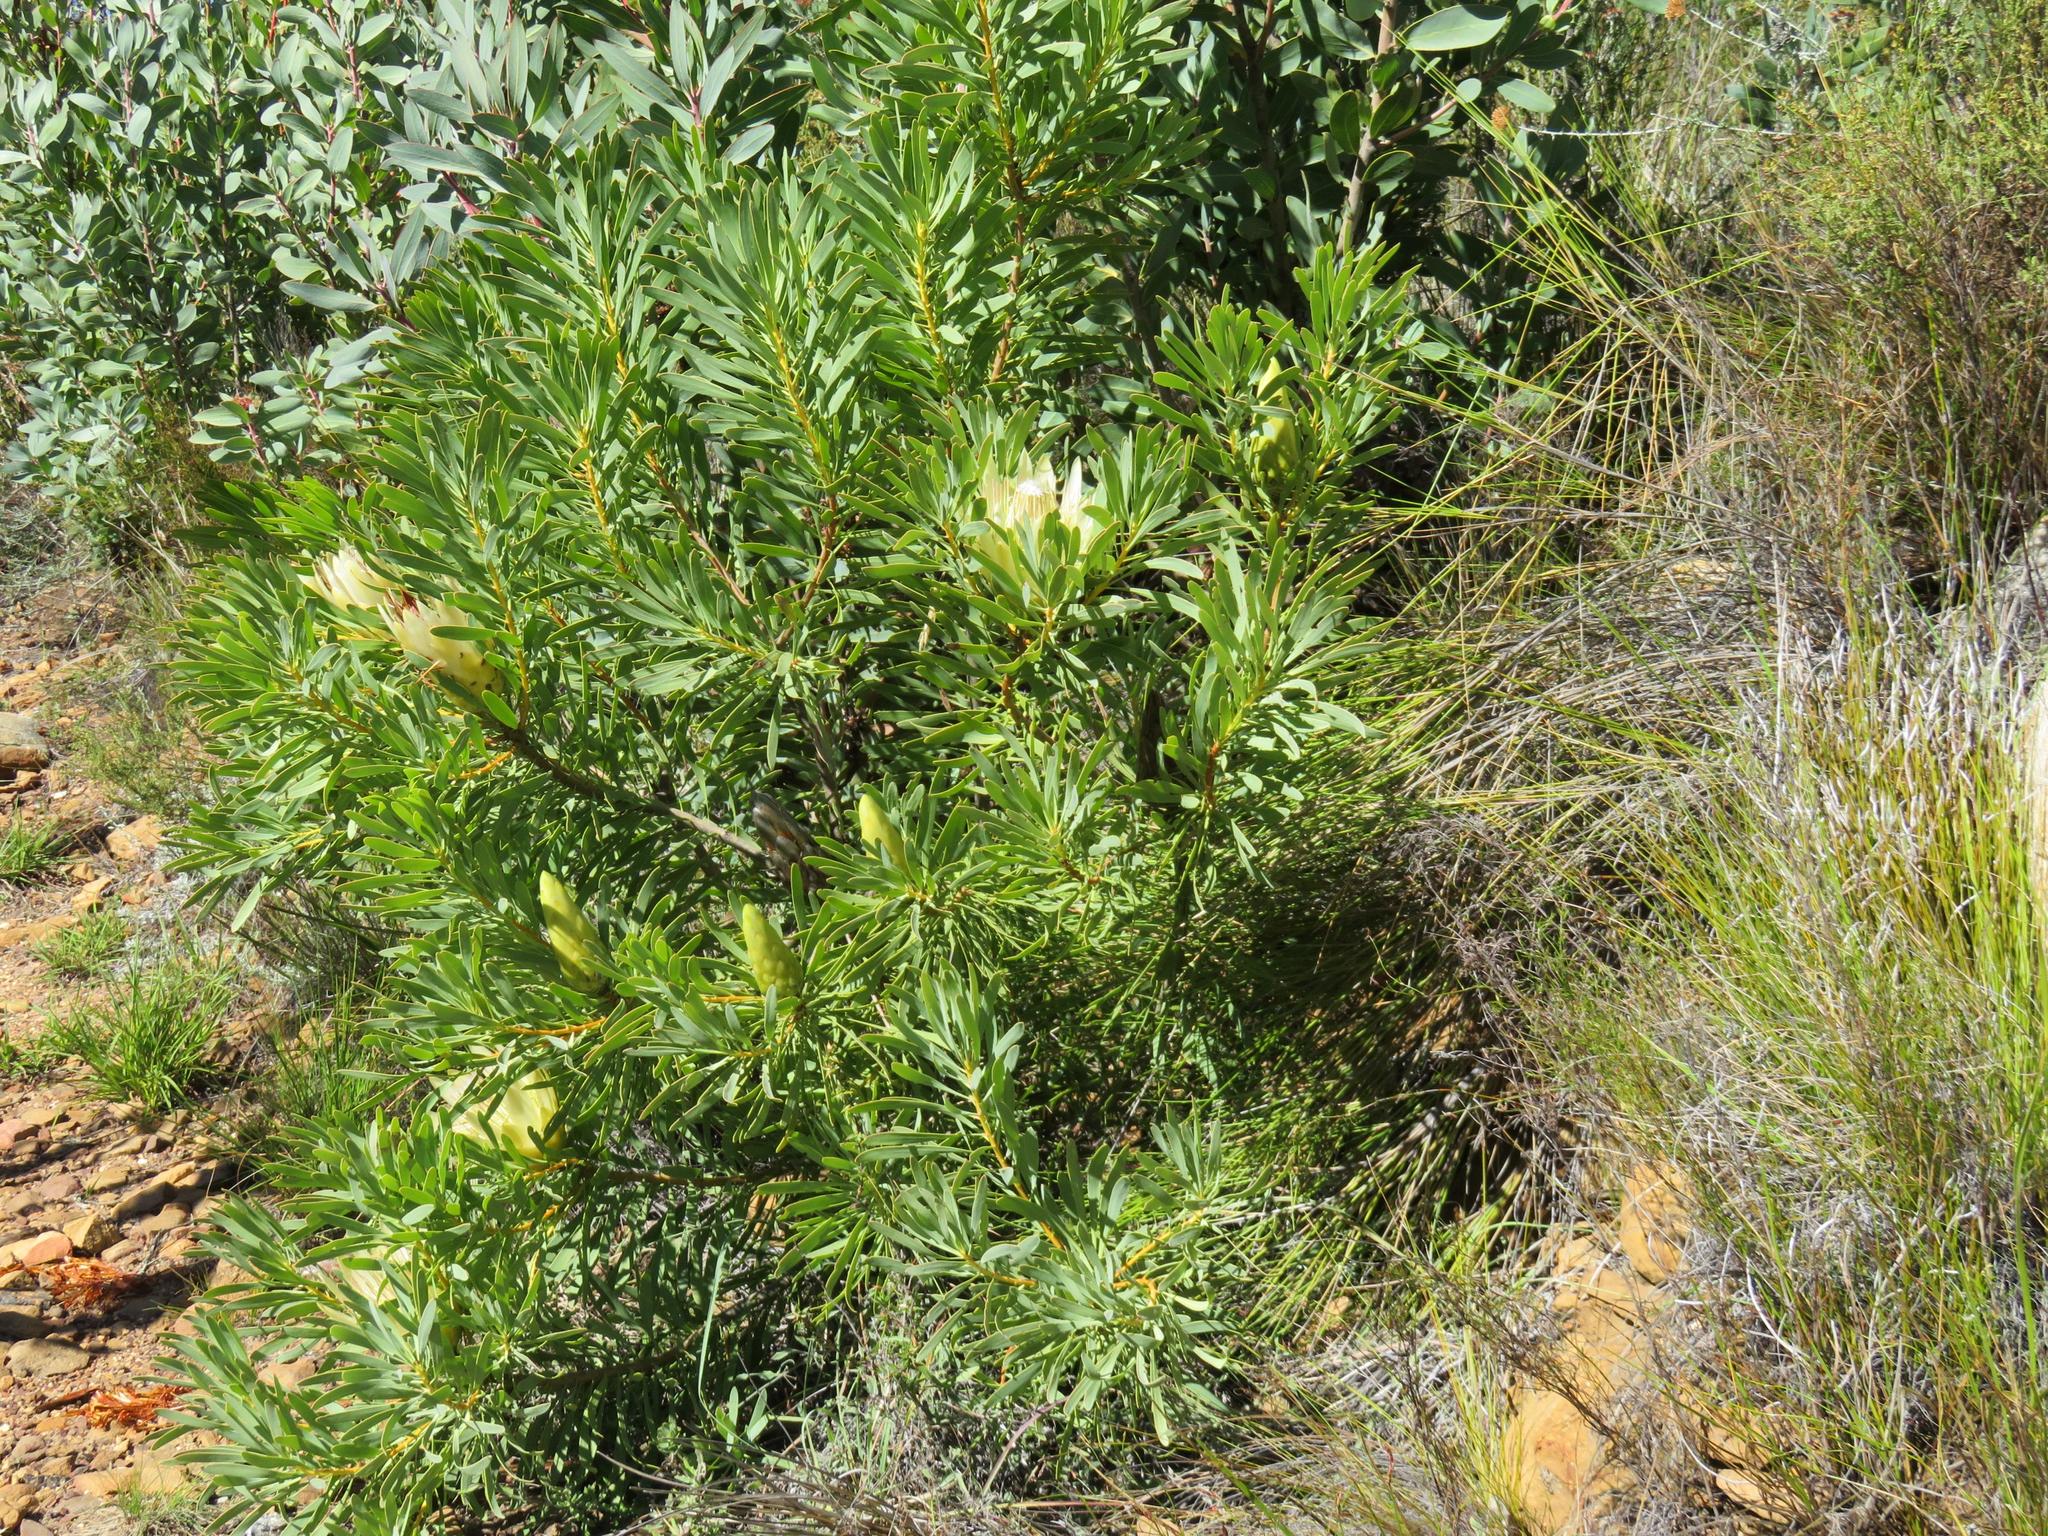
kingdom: Plantae
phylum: Tracheophyta
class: Magnoliopsida
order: Proteales
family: Proteaceae
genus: Protea
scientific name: Protea repens
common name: Sugarbush
